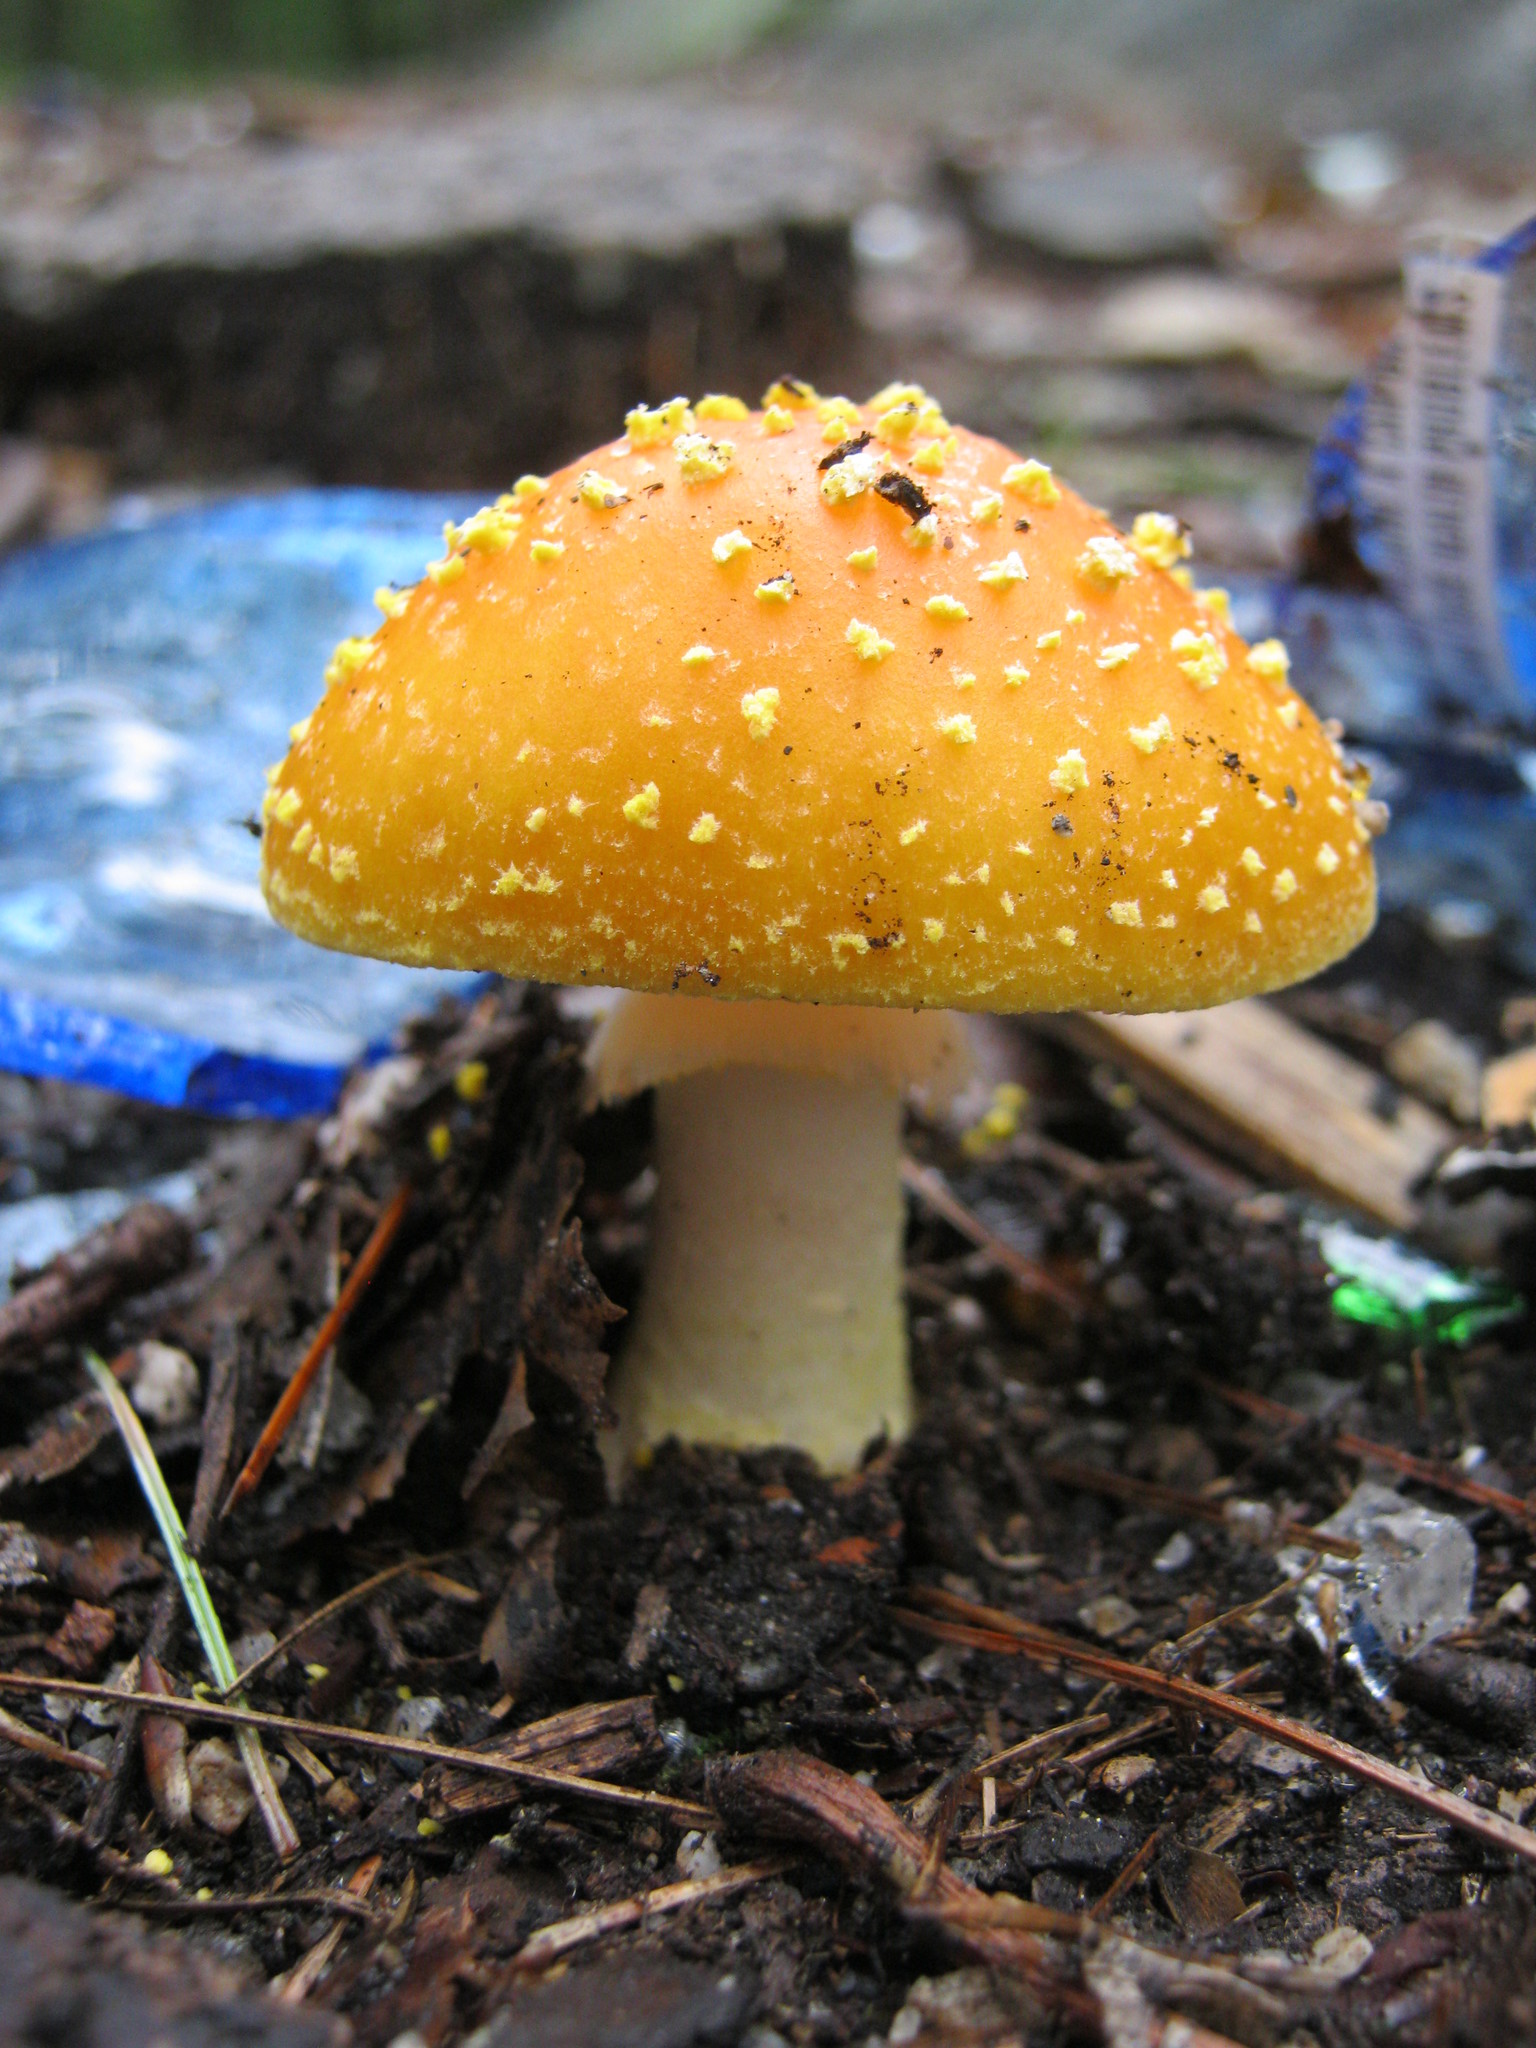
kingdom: Fungi
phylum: Basidiomycota
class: Agaricomycetes
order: Agaricales
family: Amanitaceae
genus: Amanita
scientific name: Amanita flavoconia
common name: Yellow patches
